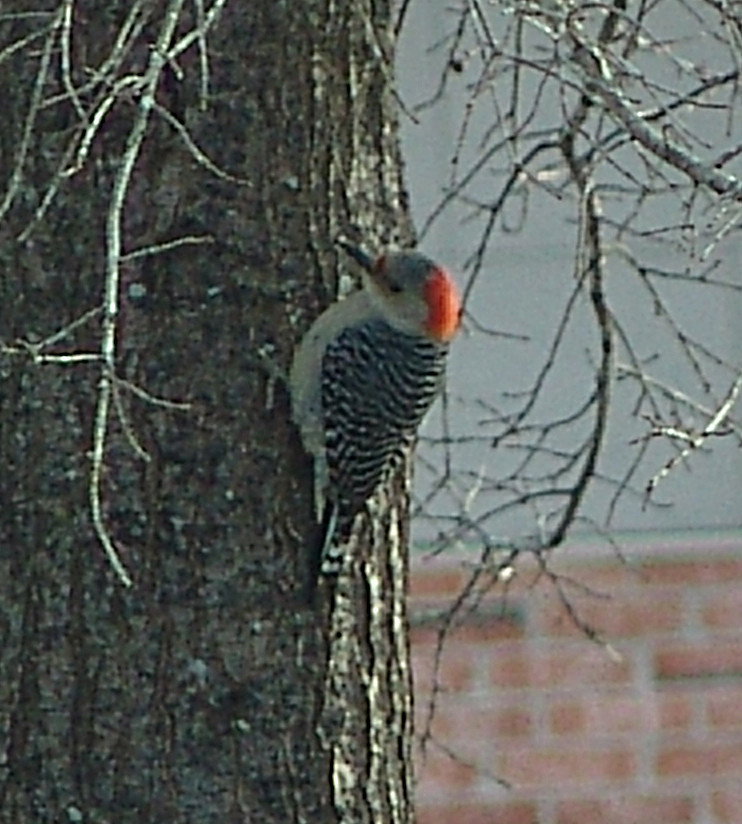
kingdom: Animalia
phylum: Chordata
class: Aves
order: Piciformes
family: Picidae
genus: Melanerpes
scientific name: Melanerpes carolinus
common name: Red-bellied woodpecker
